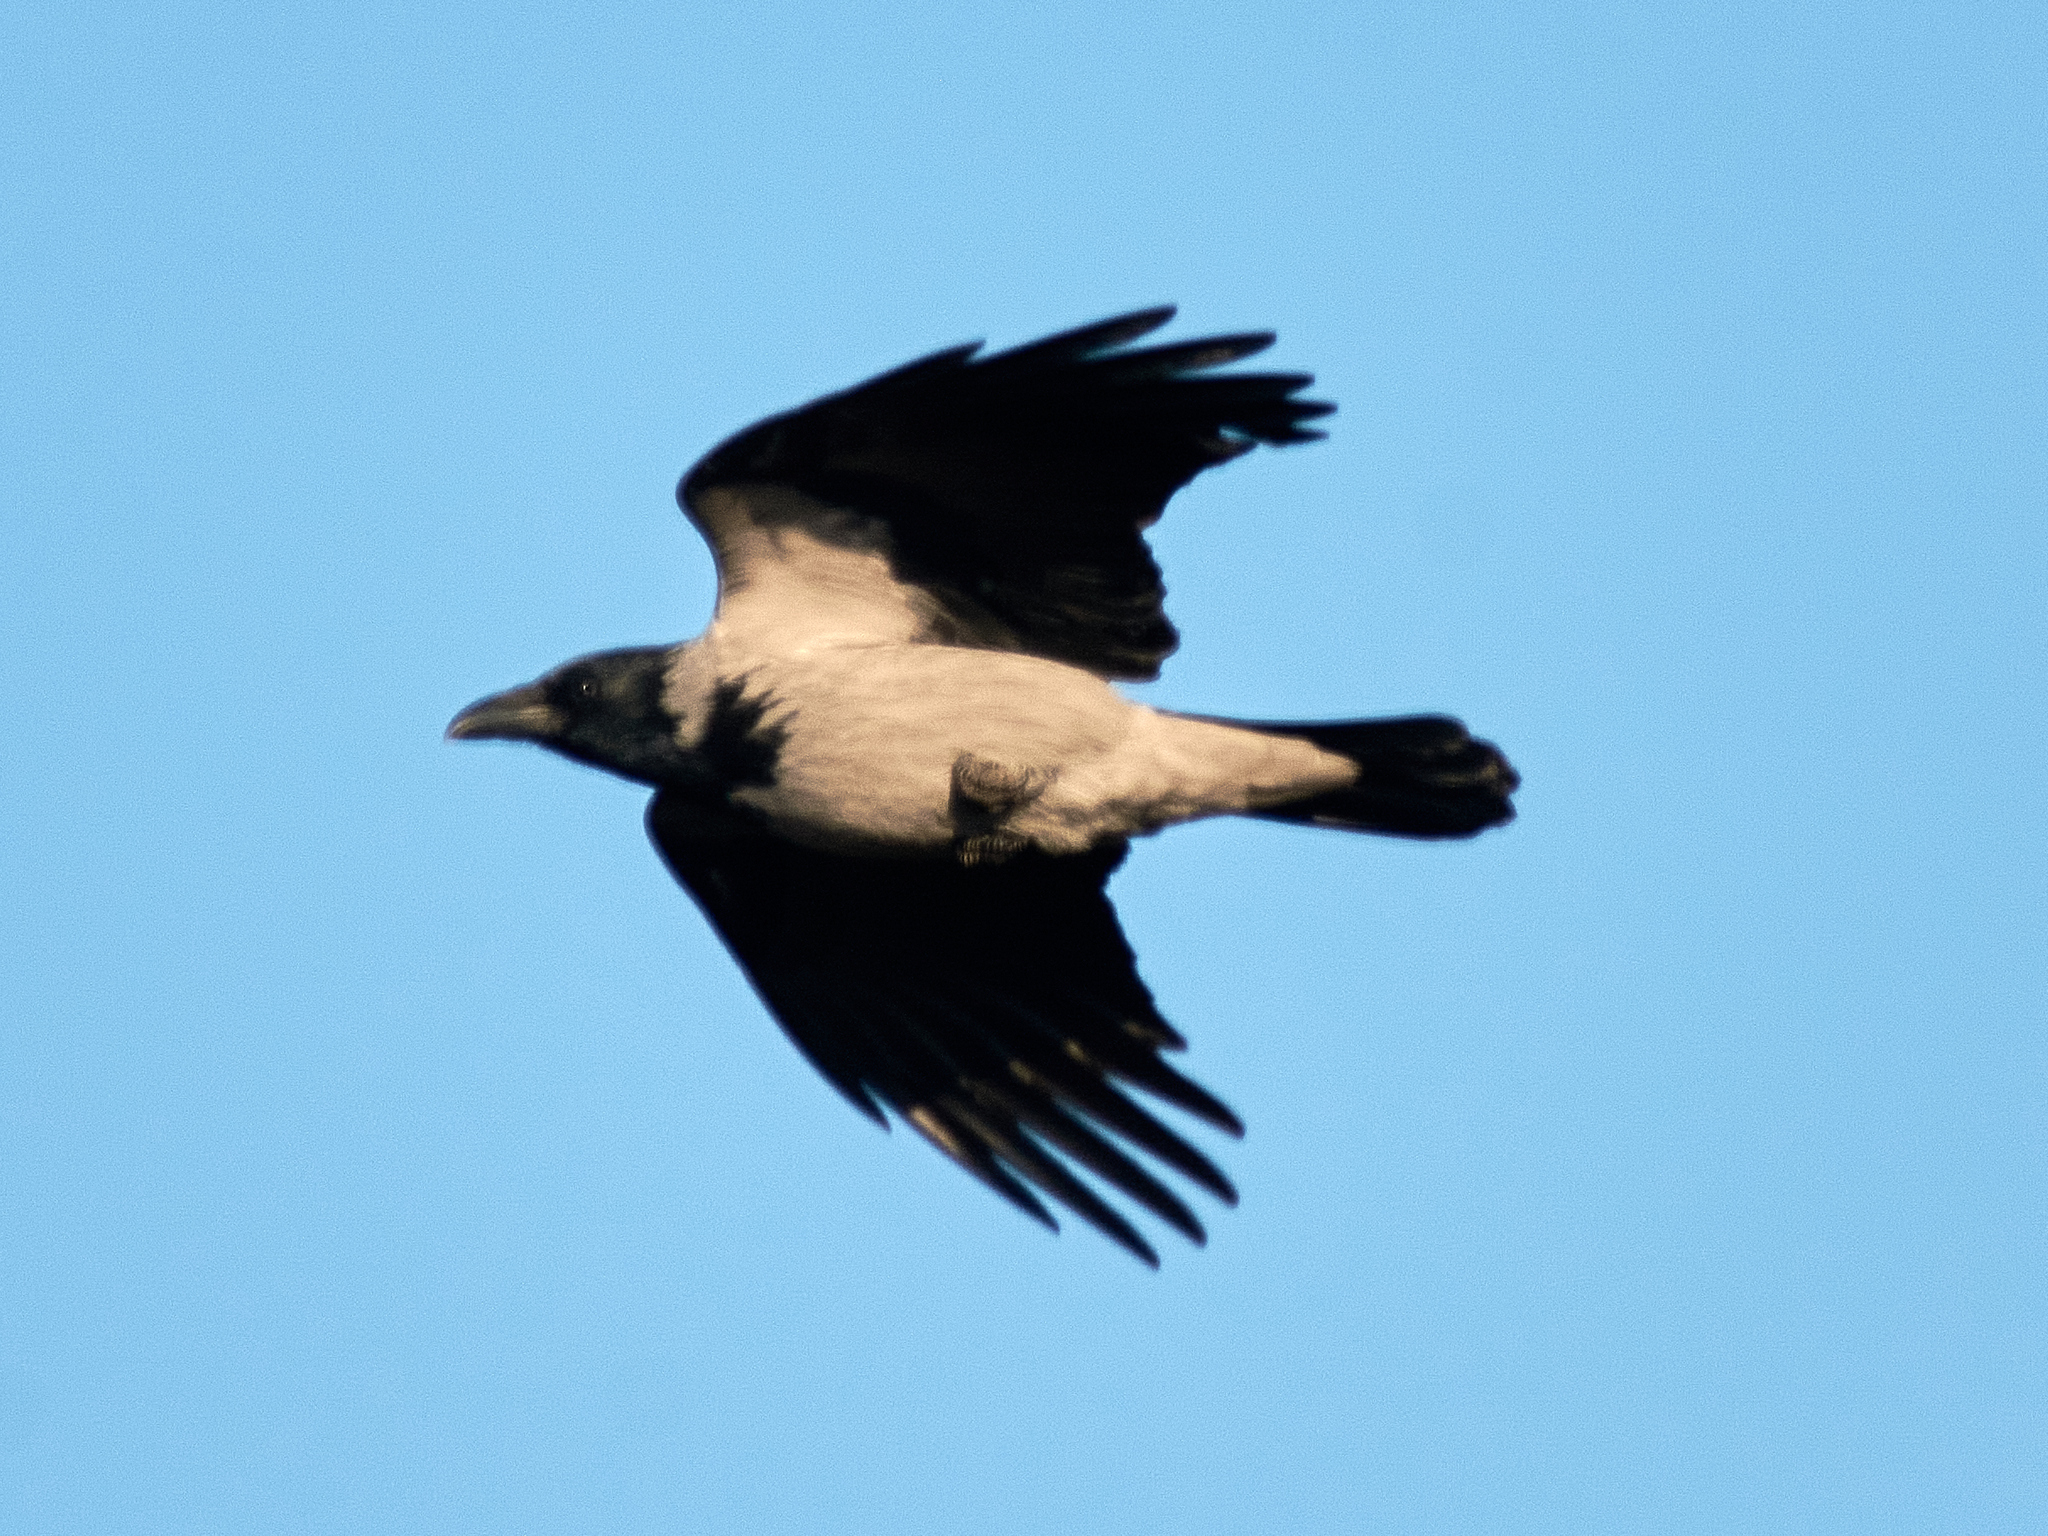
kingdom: Animalia
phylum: Chordata
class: Aves
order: Passeriformes
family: Corvidae
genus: Corvus
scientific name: Corvus cornix
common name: Hooded crow
